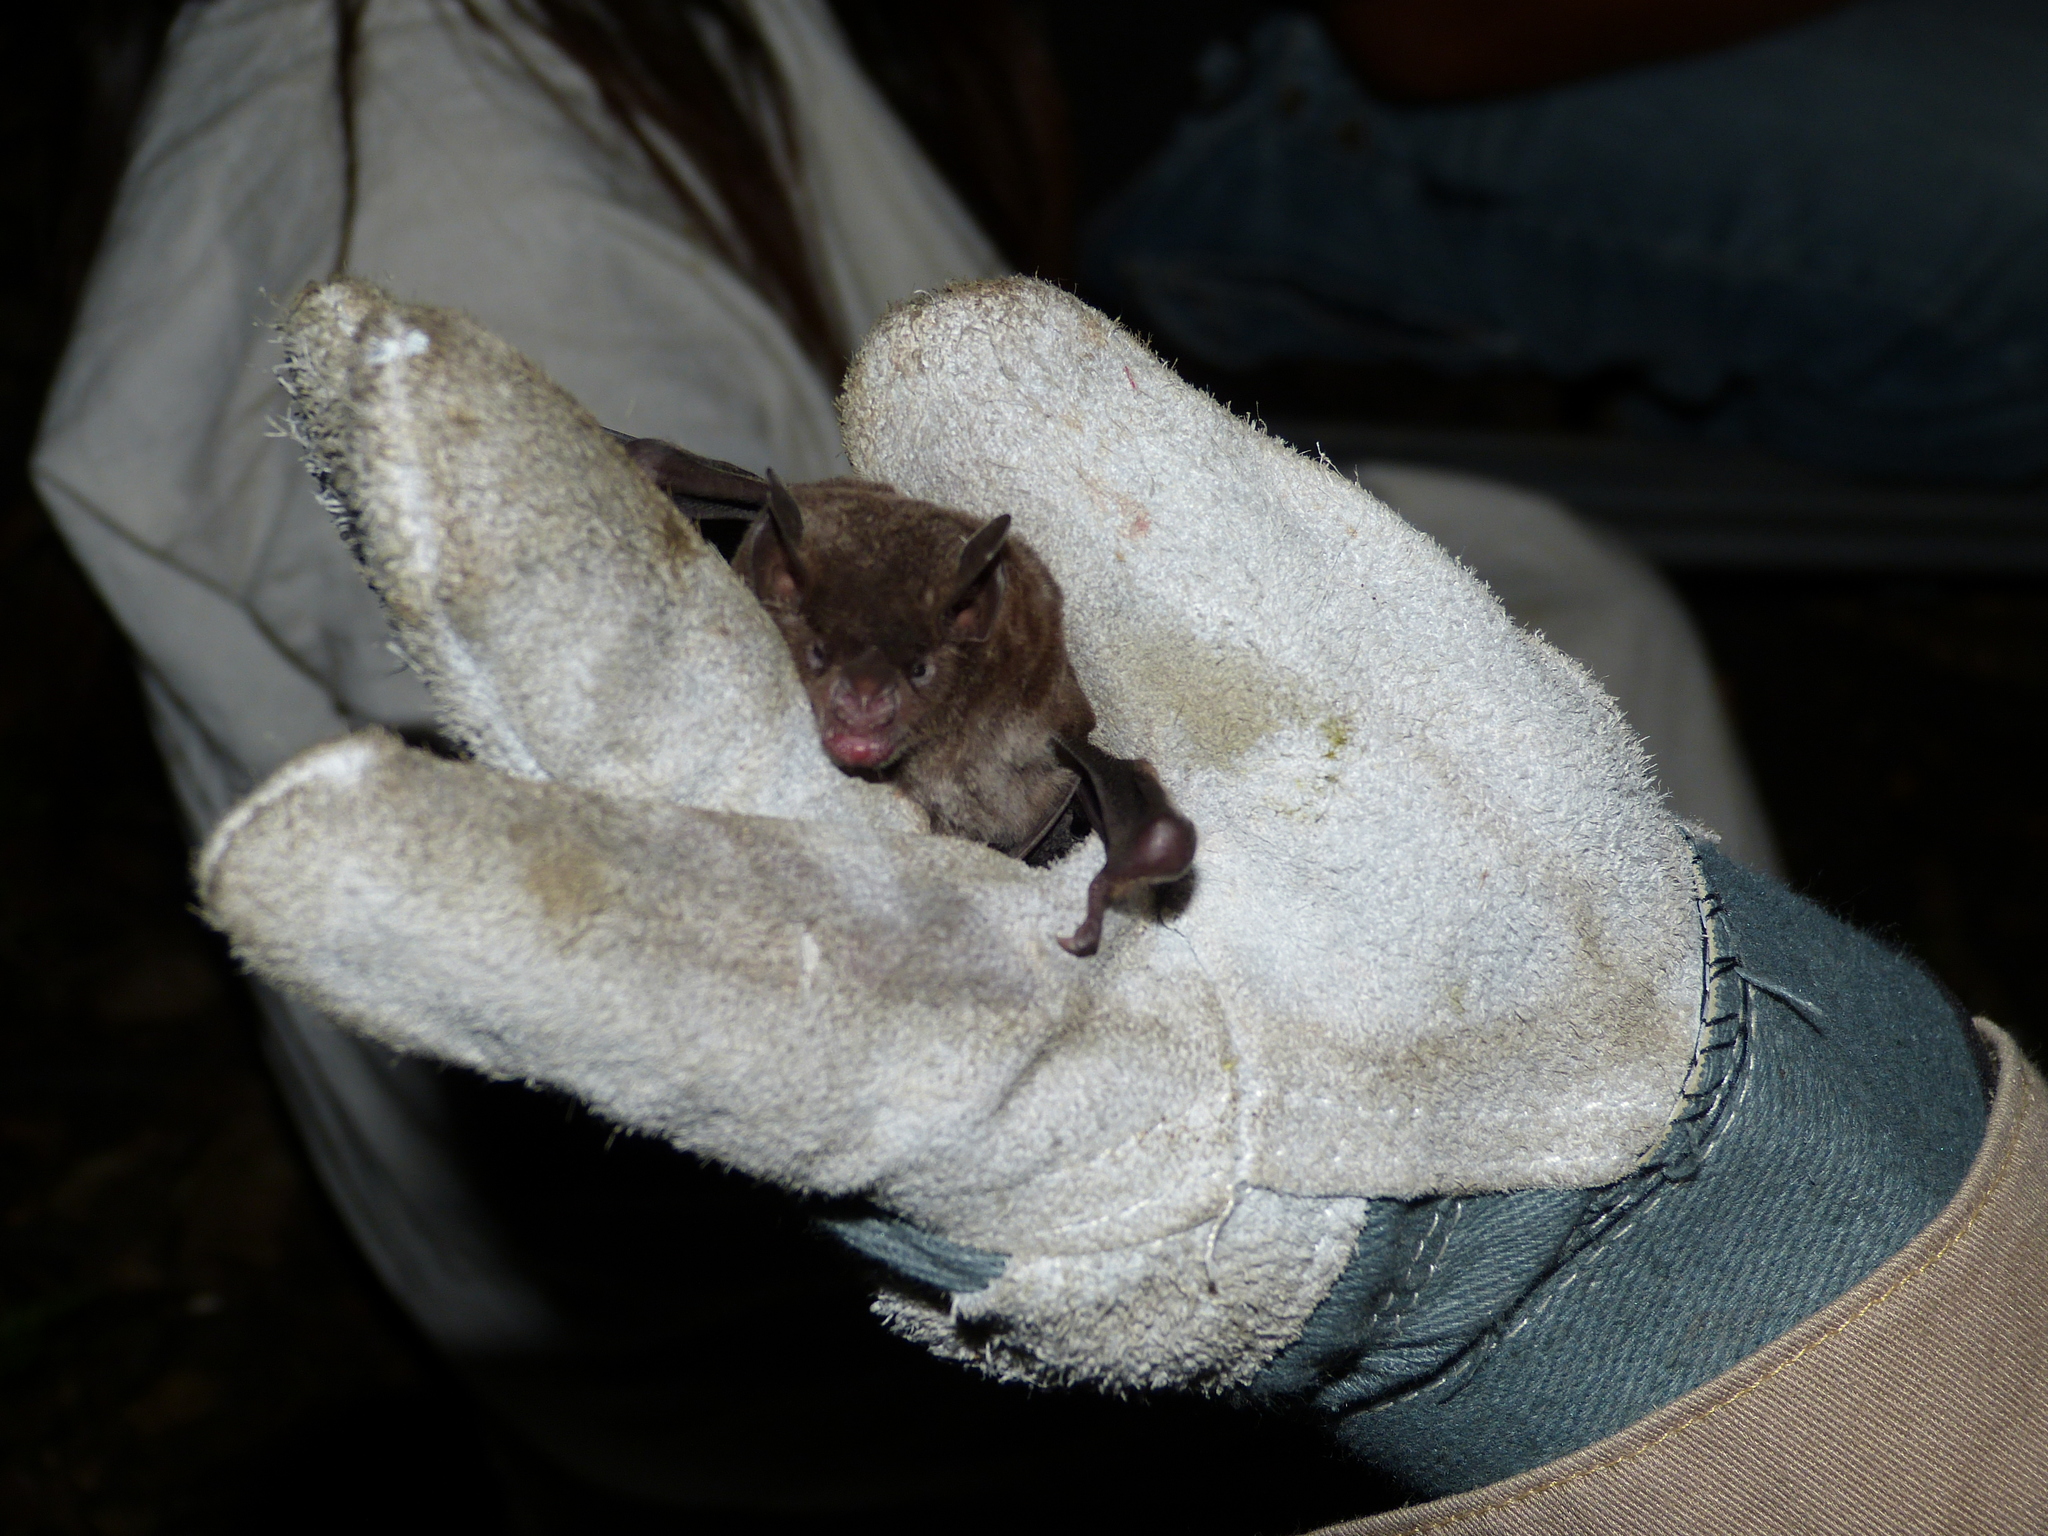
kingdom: Animalia
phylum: Chordata
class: Mammalia
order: Chiroptera
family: Phyllostomidae
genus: Carollia
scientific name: Carollia sowelli
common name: Sowell’s short-tailed bat
